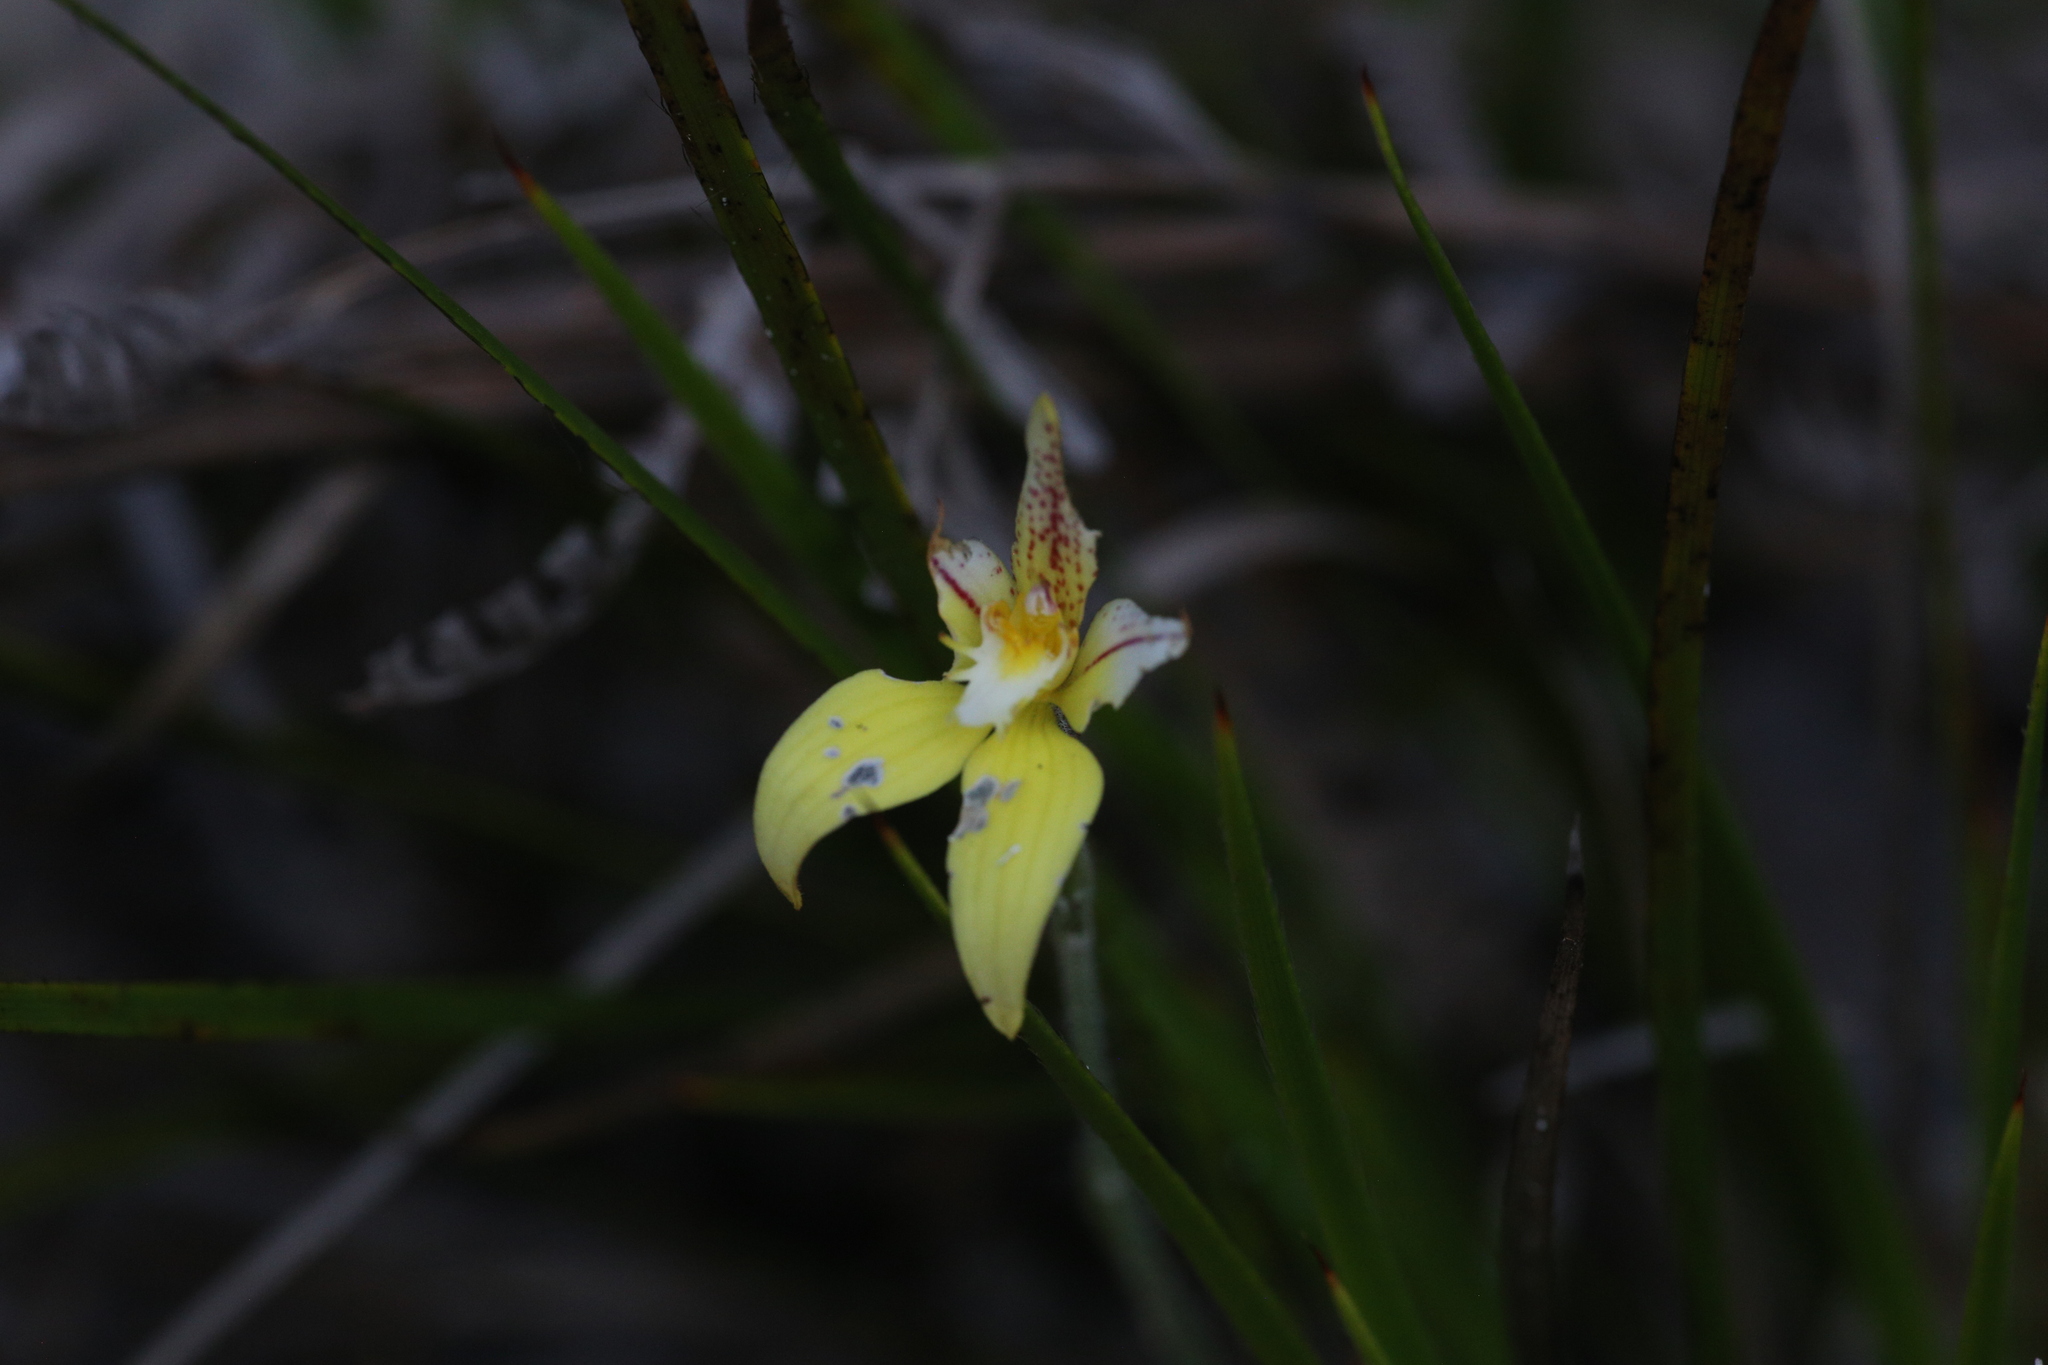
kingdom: Plantae
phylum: Tracheophyta
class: Liliopsida
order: Asparagales
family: Orchidaceae
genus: Caladenia
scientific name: Caladenia flava
